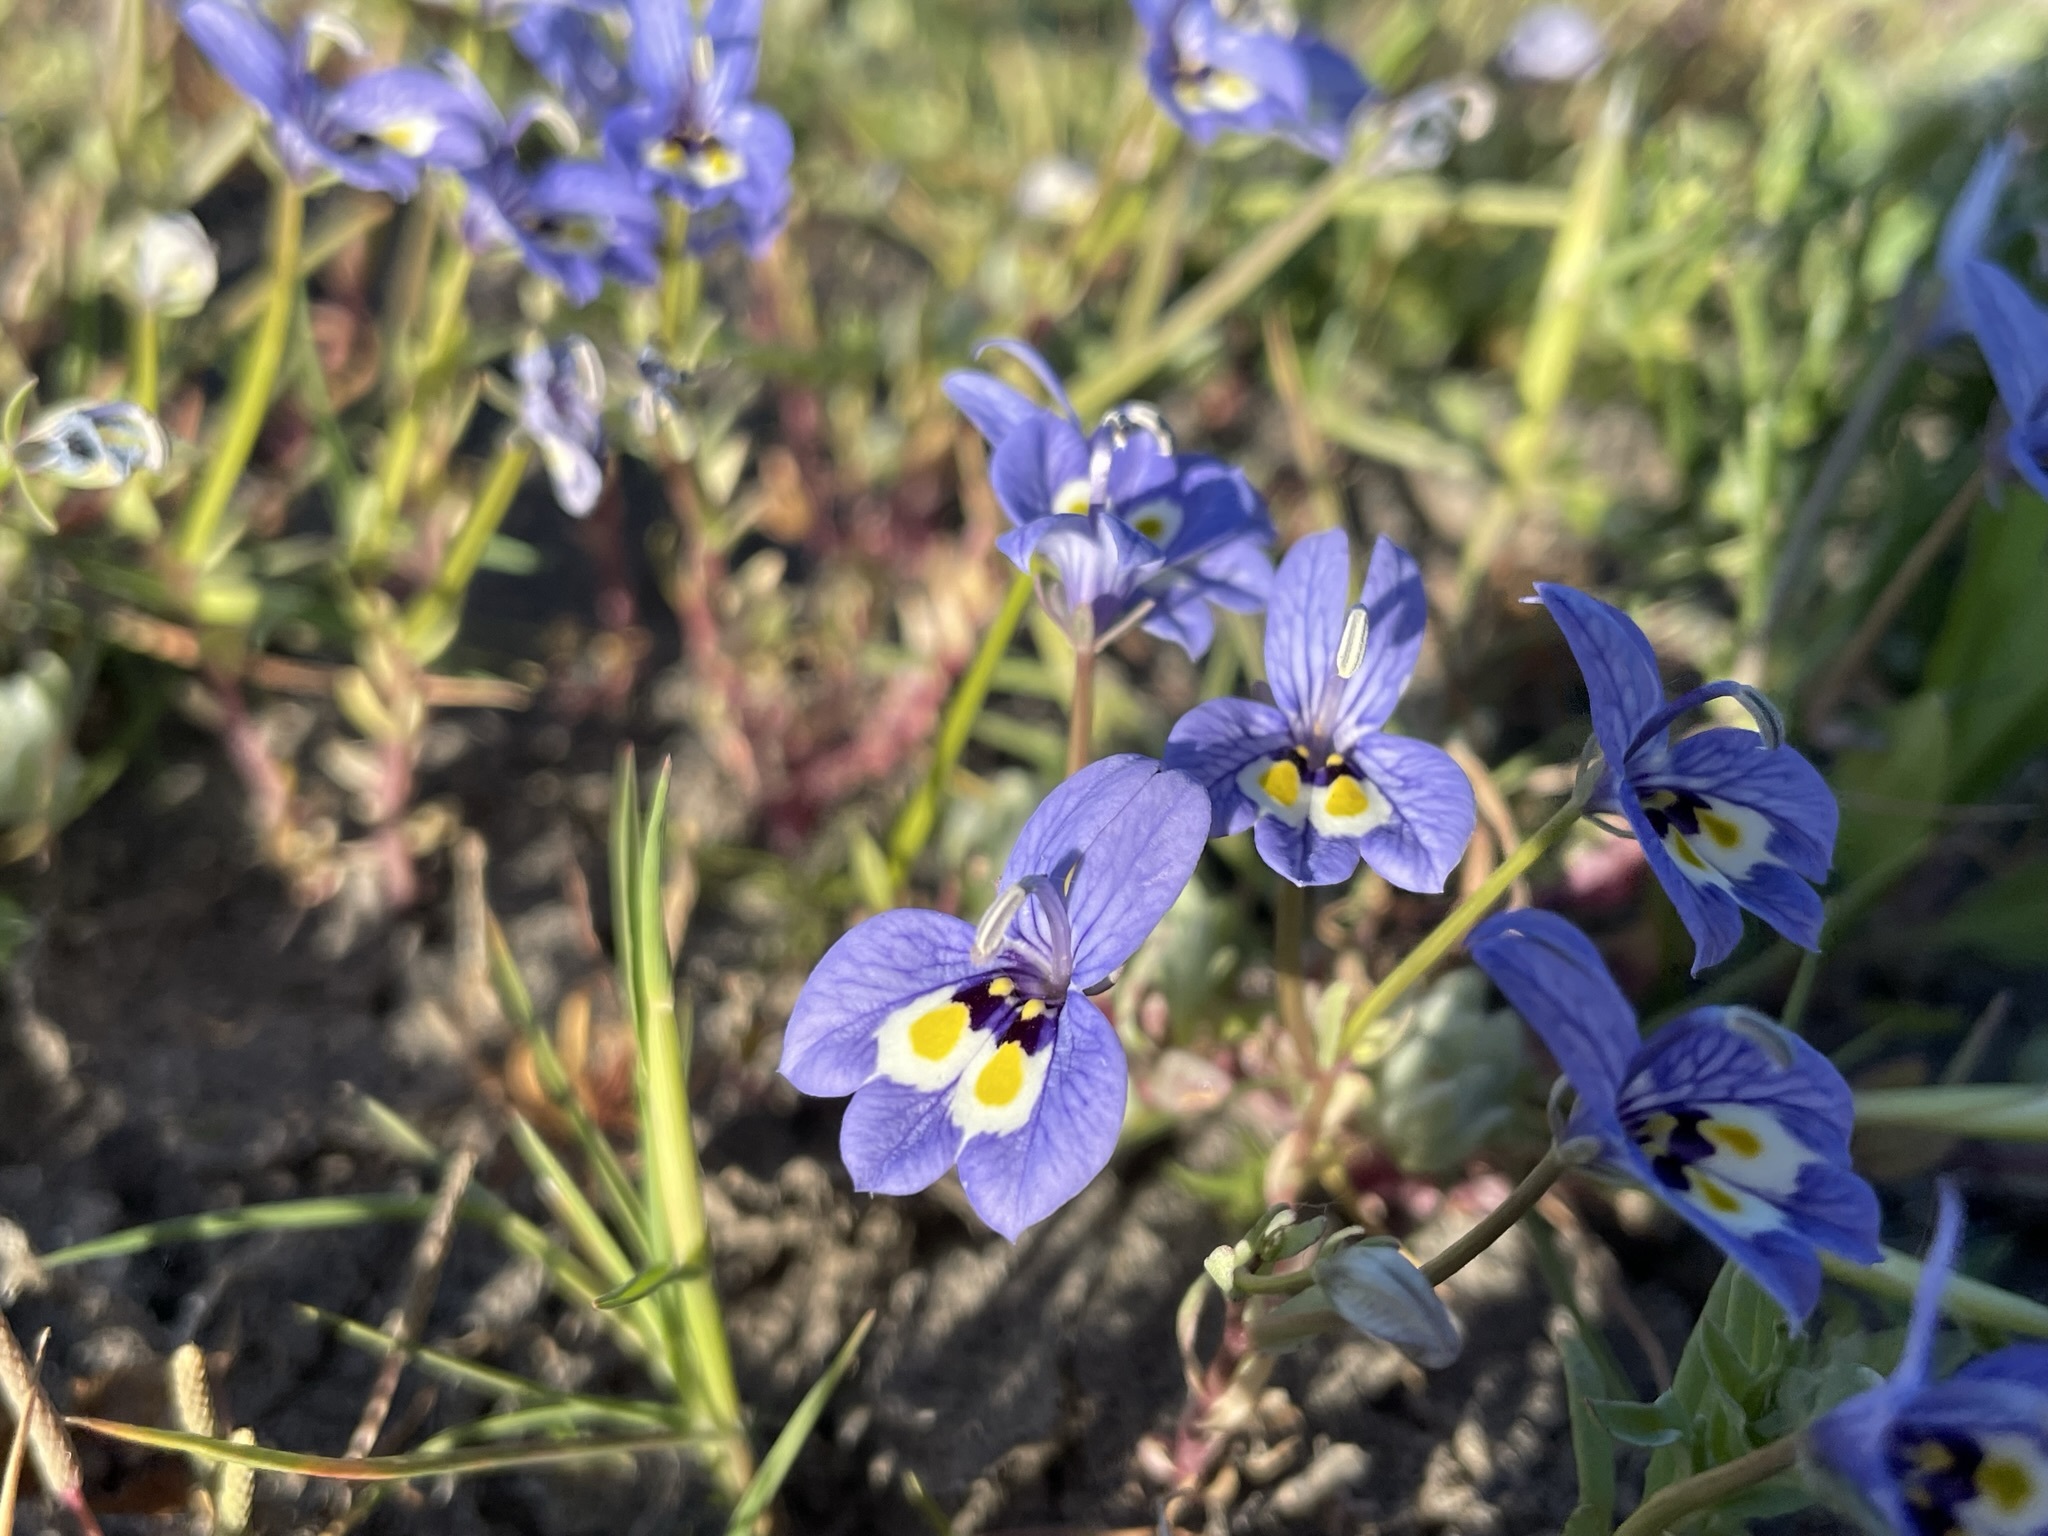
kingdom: Plantae
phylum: Tracheophyta
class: Magnoliopsida
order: Asterales
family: Campanulaceae
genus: Downingia
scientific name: Downingia insignis
